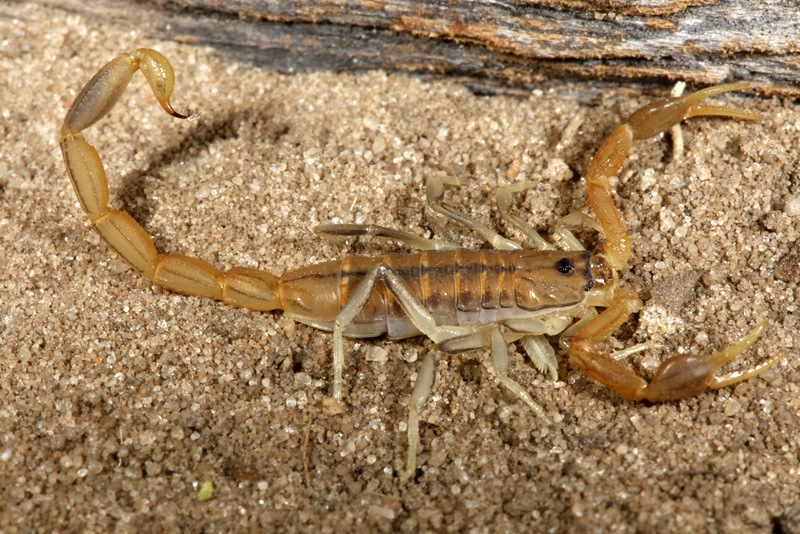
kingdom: Animalia
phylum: Arthropoda
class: Arachnida
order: Scorpiones
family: Buthidae
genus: Uroplectes
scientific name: Uroplectes planimanus
